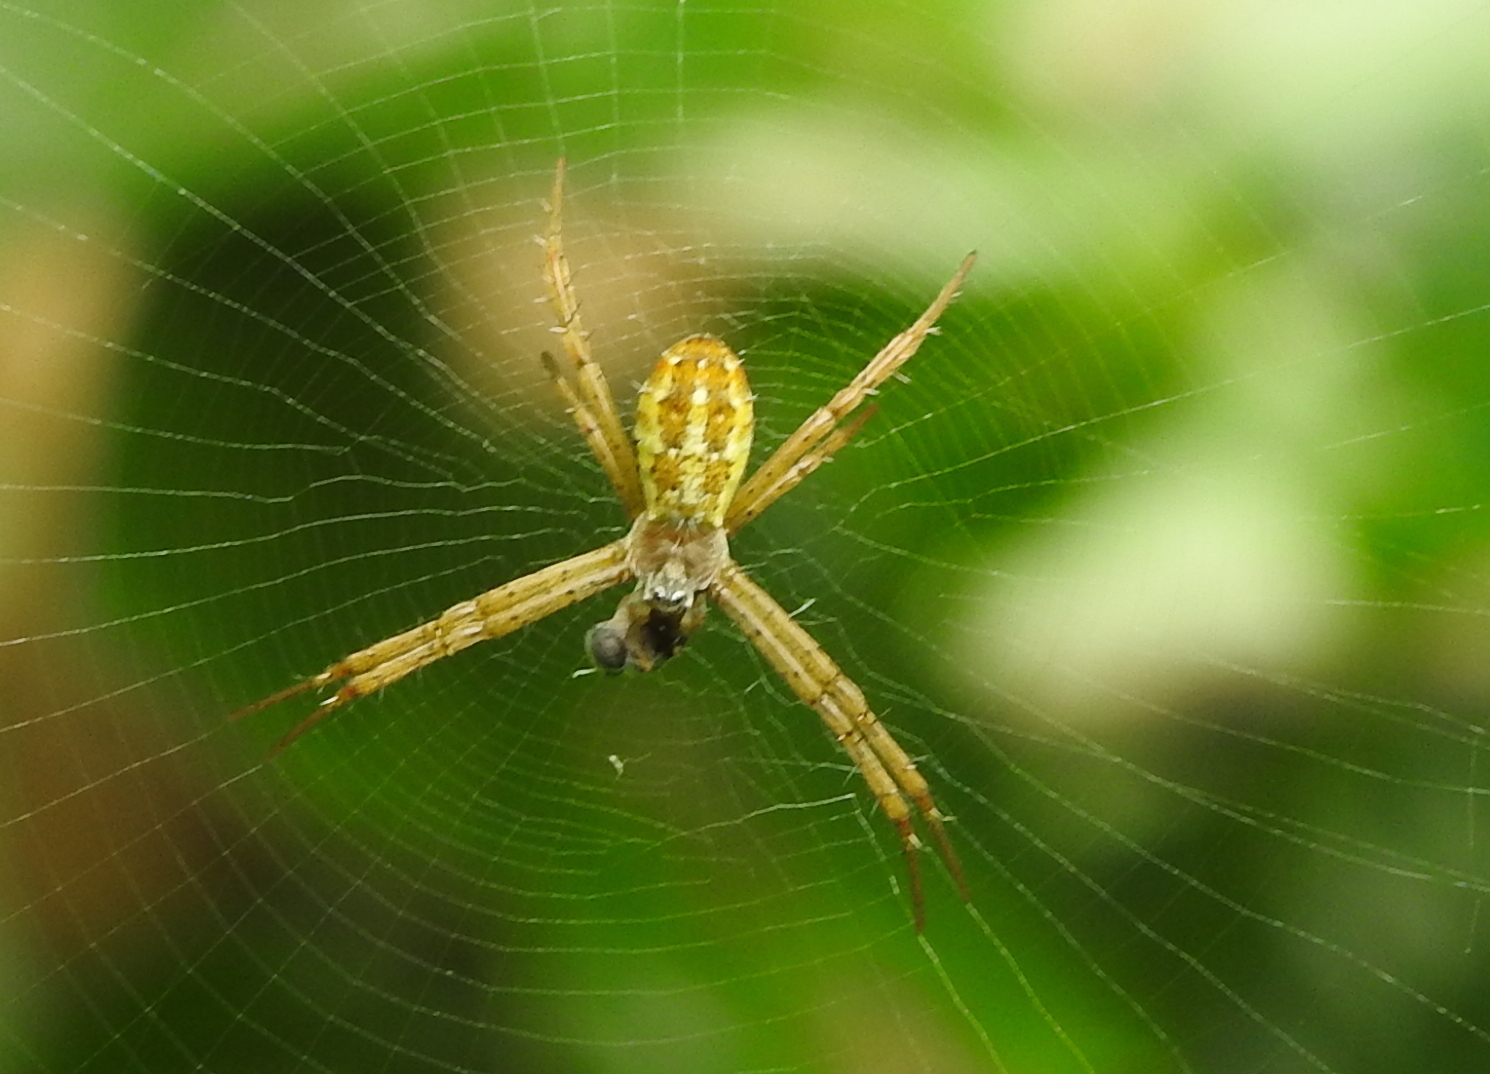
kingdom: Animalia
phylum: Arthropoda
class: Arachnida
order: Araneae
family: Araneidae
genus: Argiope
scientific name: Argiope dang
